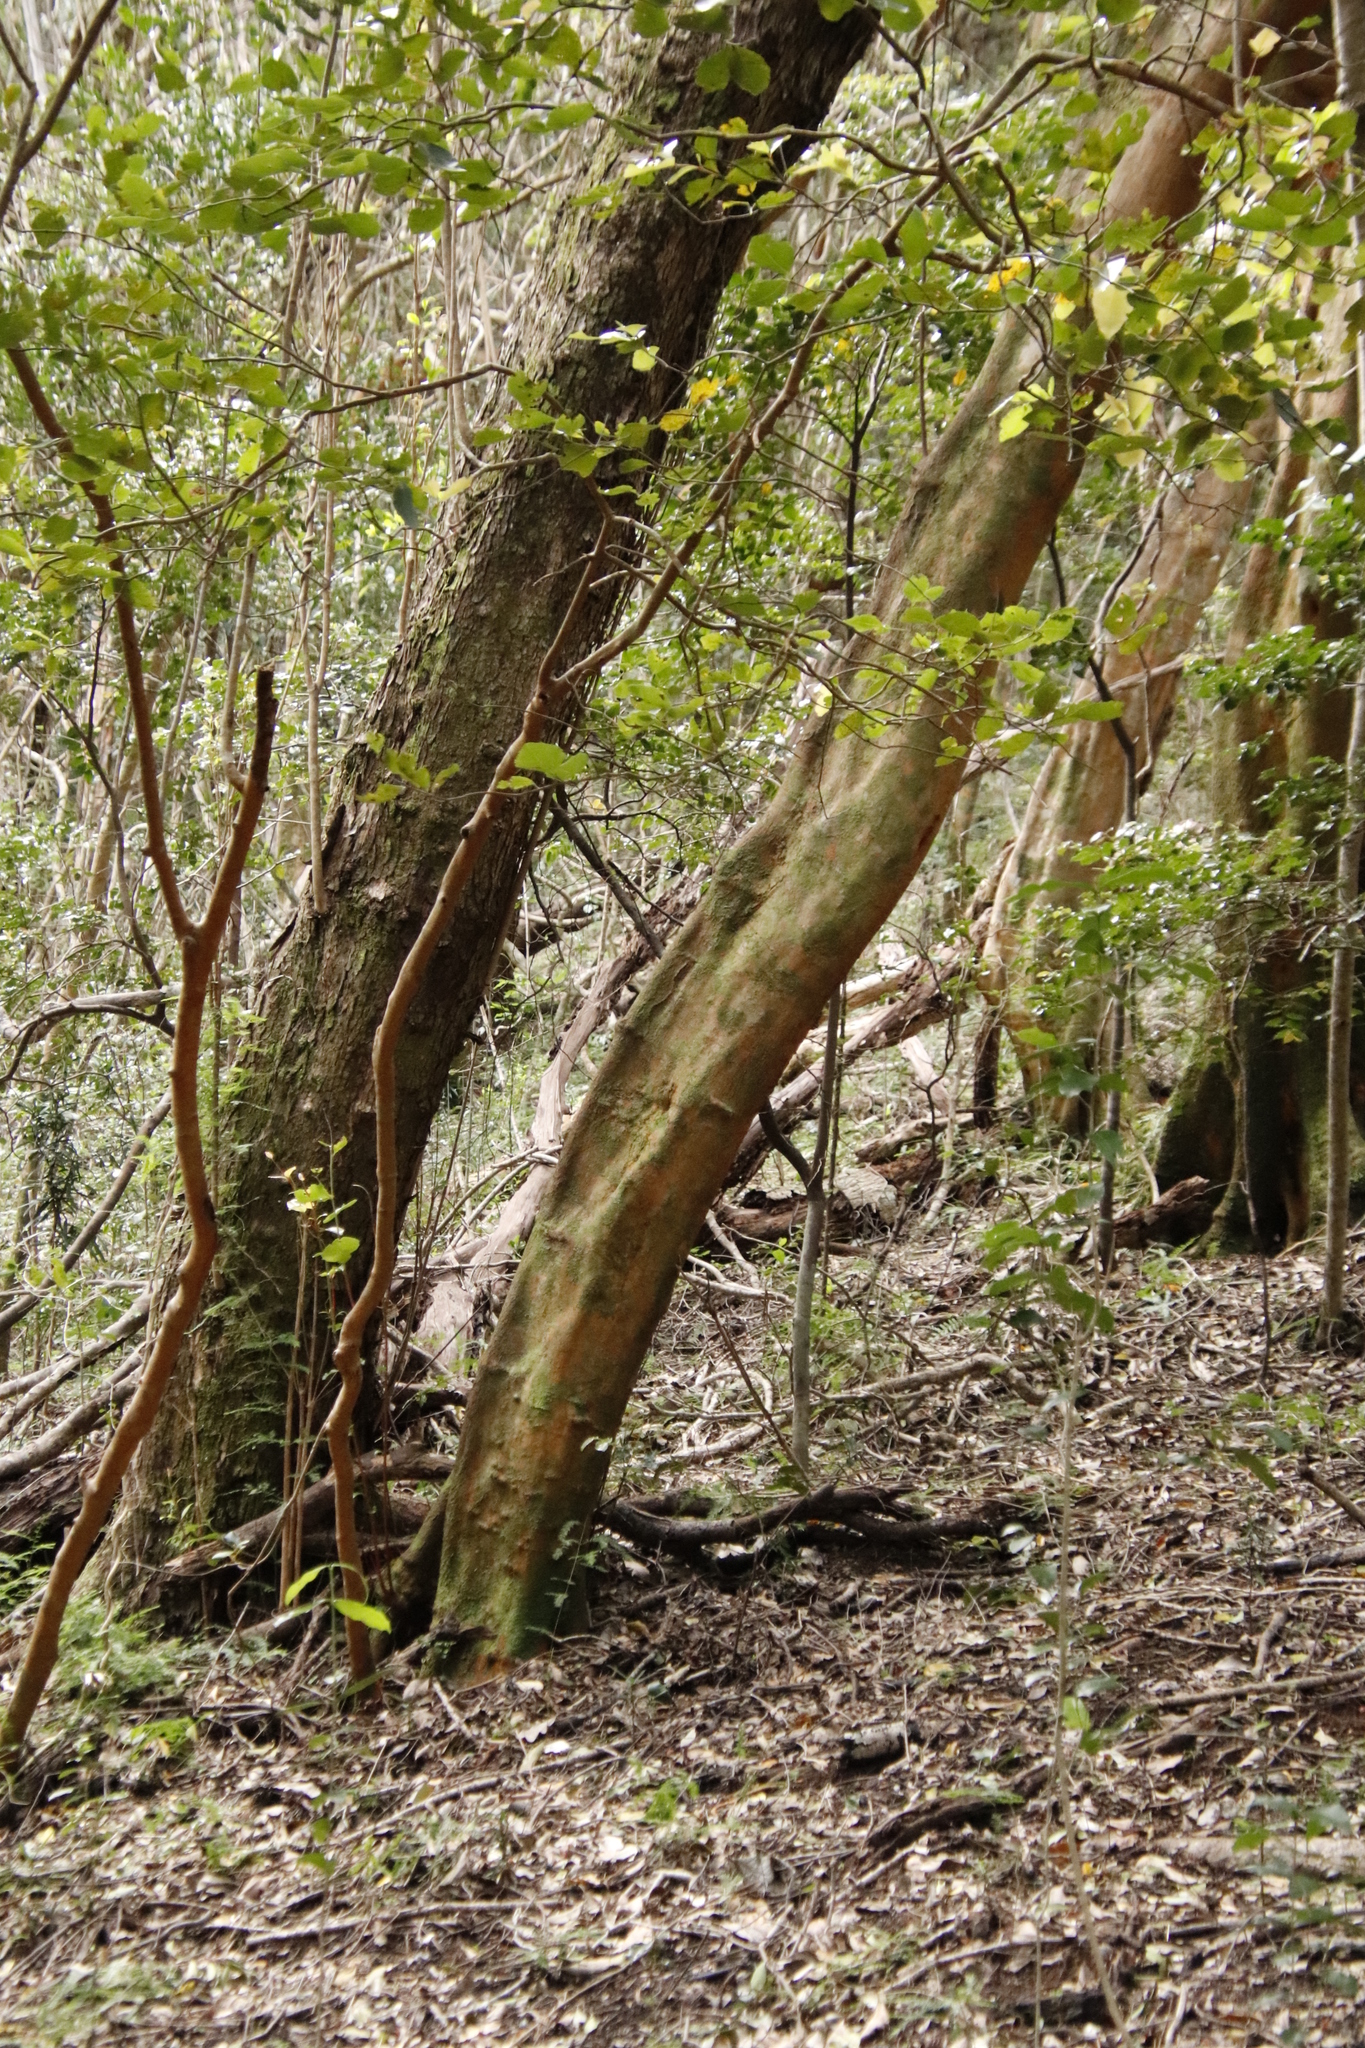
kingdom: Plantae
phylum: Tracheophyta
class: Magnoliopsida
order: Celastrales
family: Celastraceae
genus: Cassine
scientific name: Cassine peragua
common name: Cape saffron
